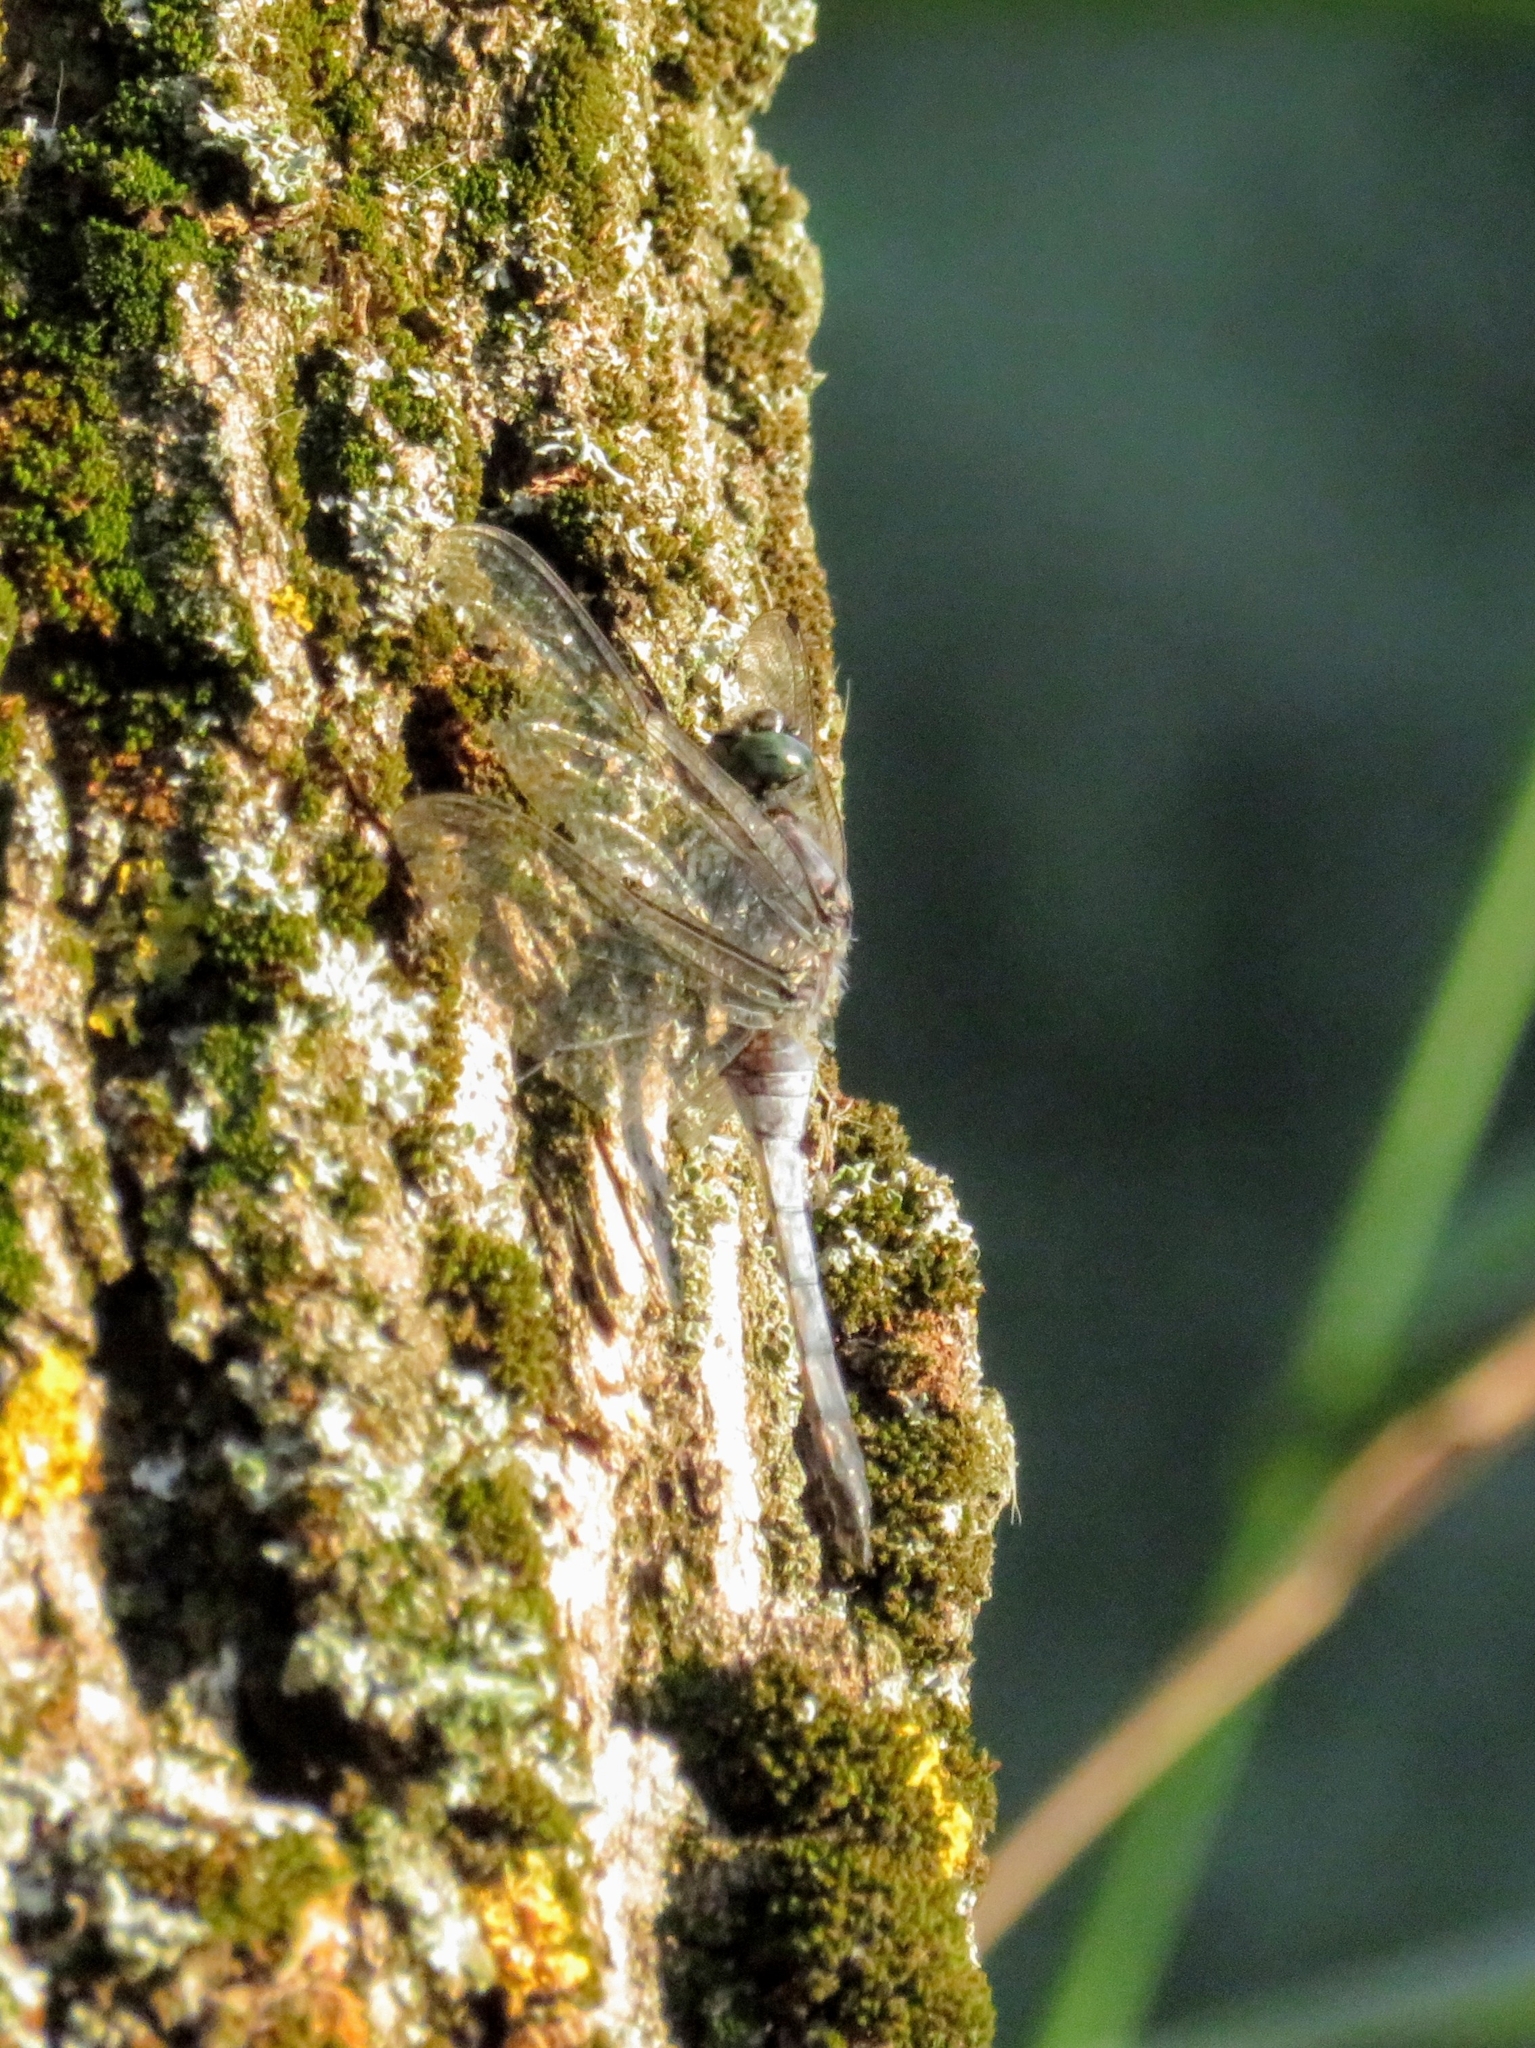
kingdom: Animalia
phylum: Arthropoda
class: Insecta
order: Odonata
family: Libellulidae
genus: Orthetrum
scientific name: Orthetrum cancellatum
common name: Black-tailed skimmer
